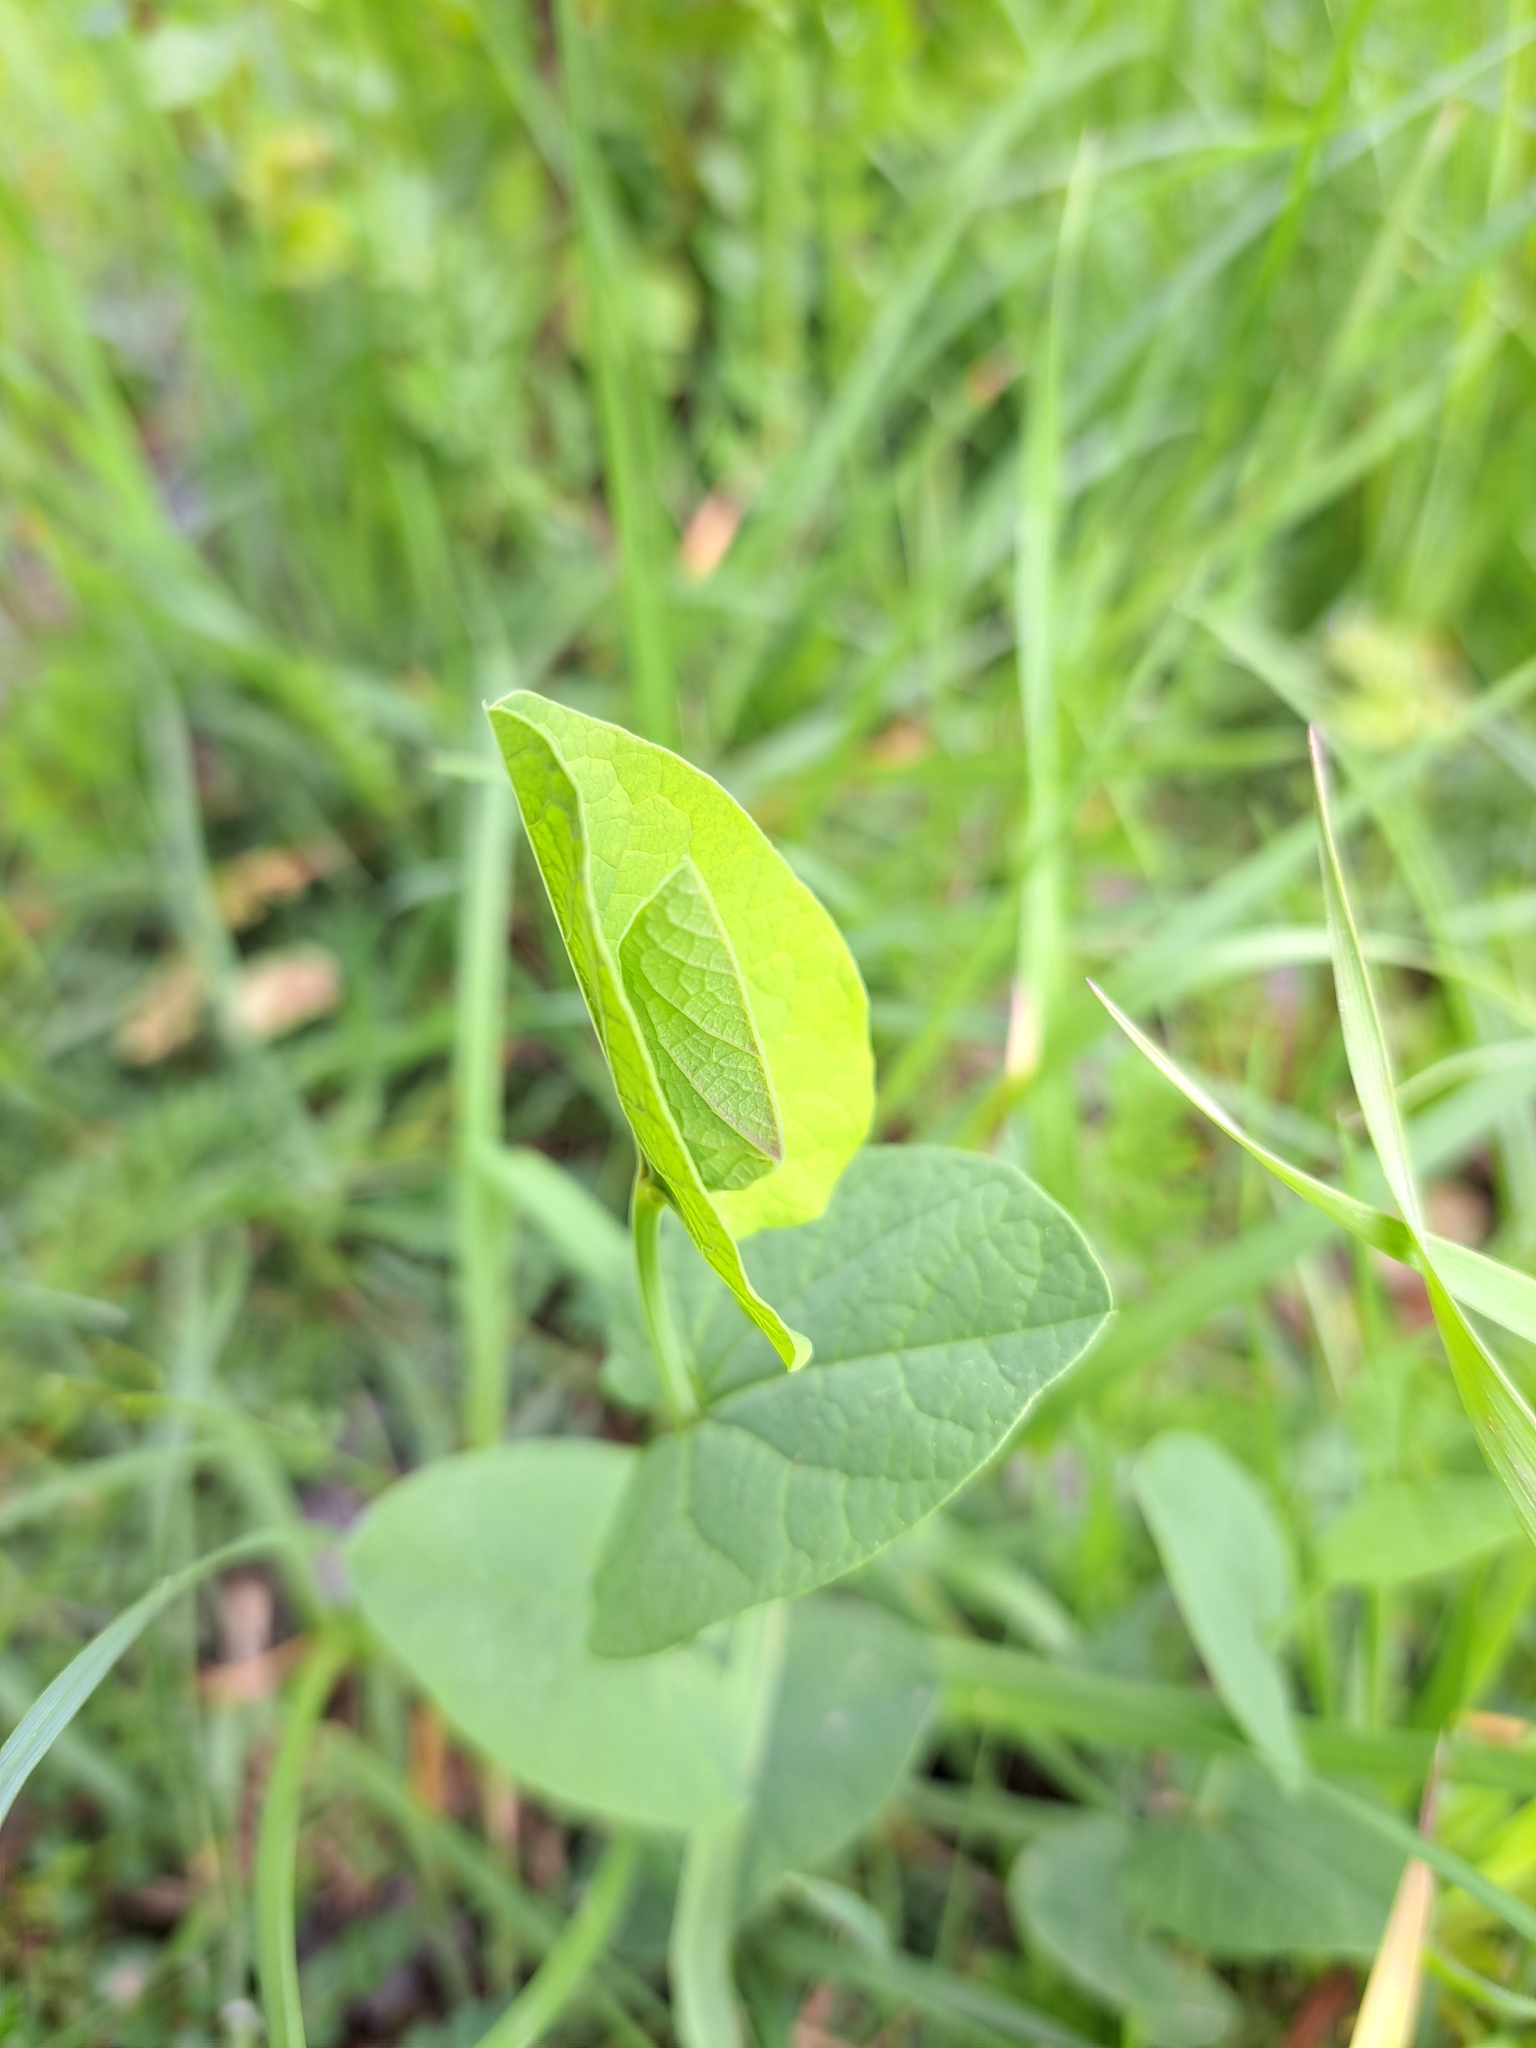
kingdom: Plantae
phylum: Tracheophyta
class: Magnoliopsida
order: Piperales
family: Aristolochiaceae
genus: Aristolochia
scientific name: Aristolochia rotunda
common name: Smearwort
